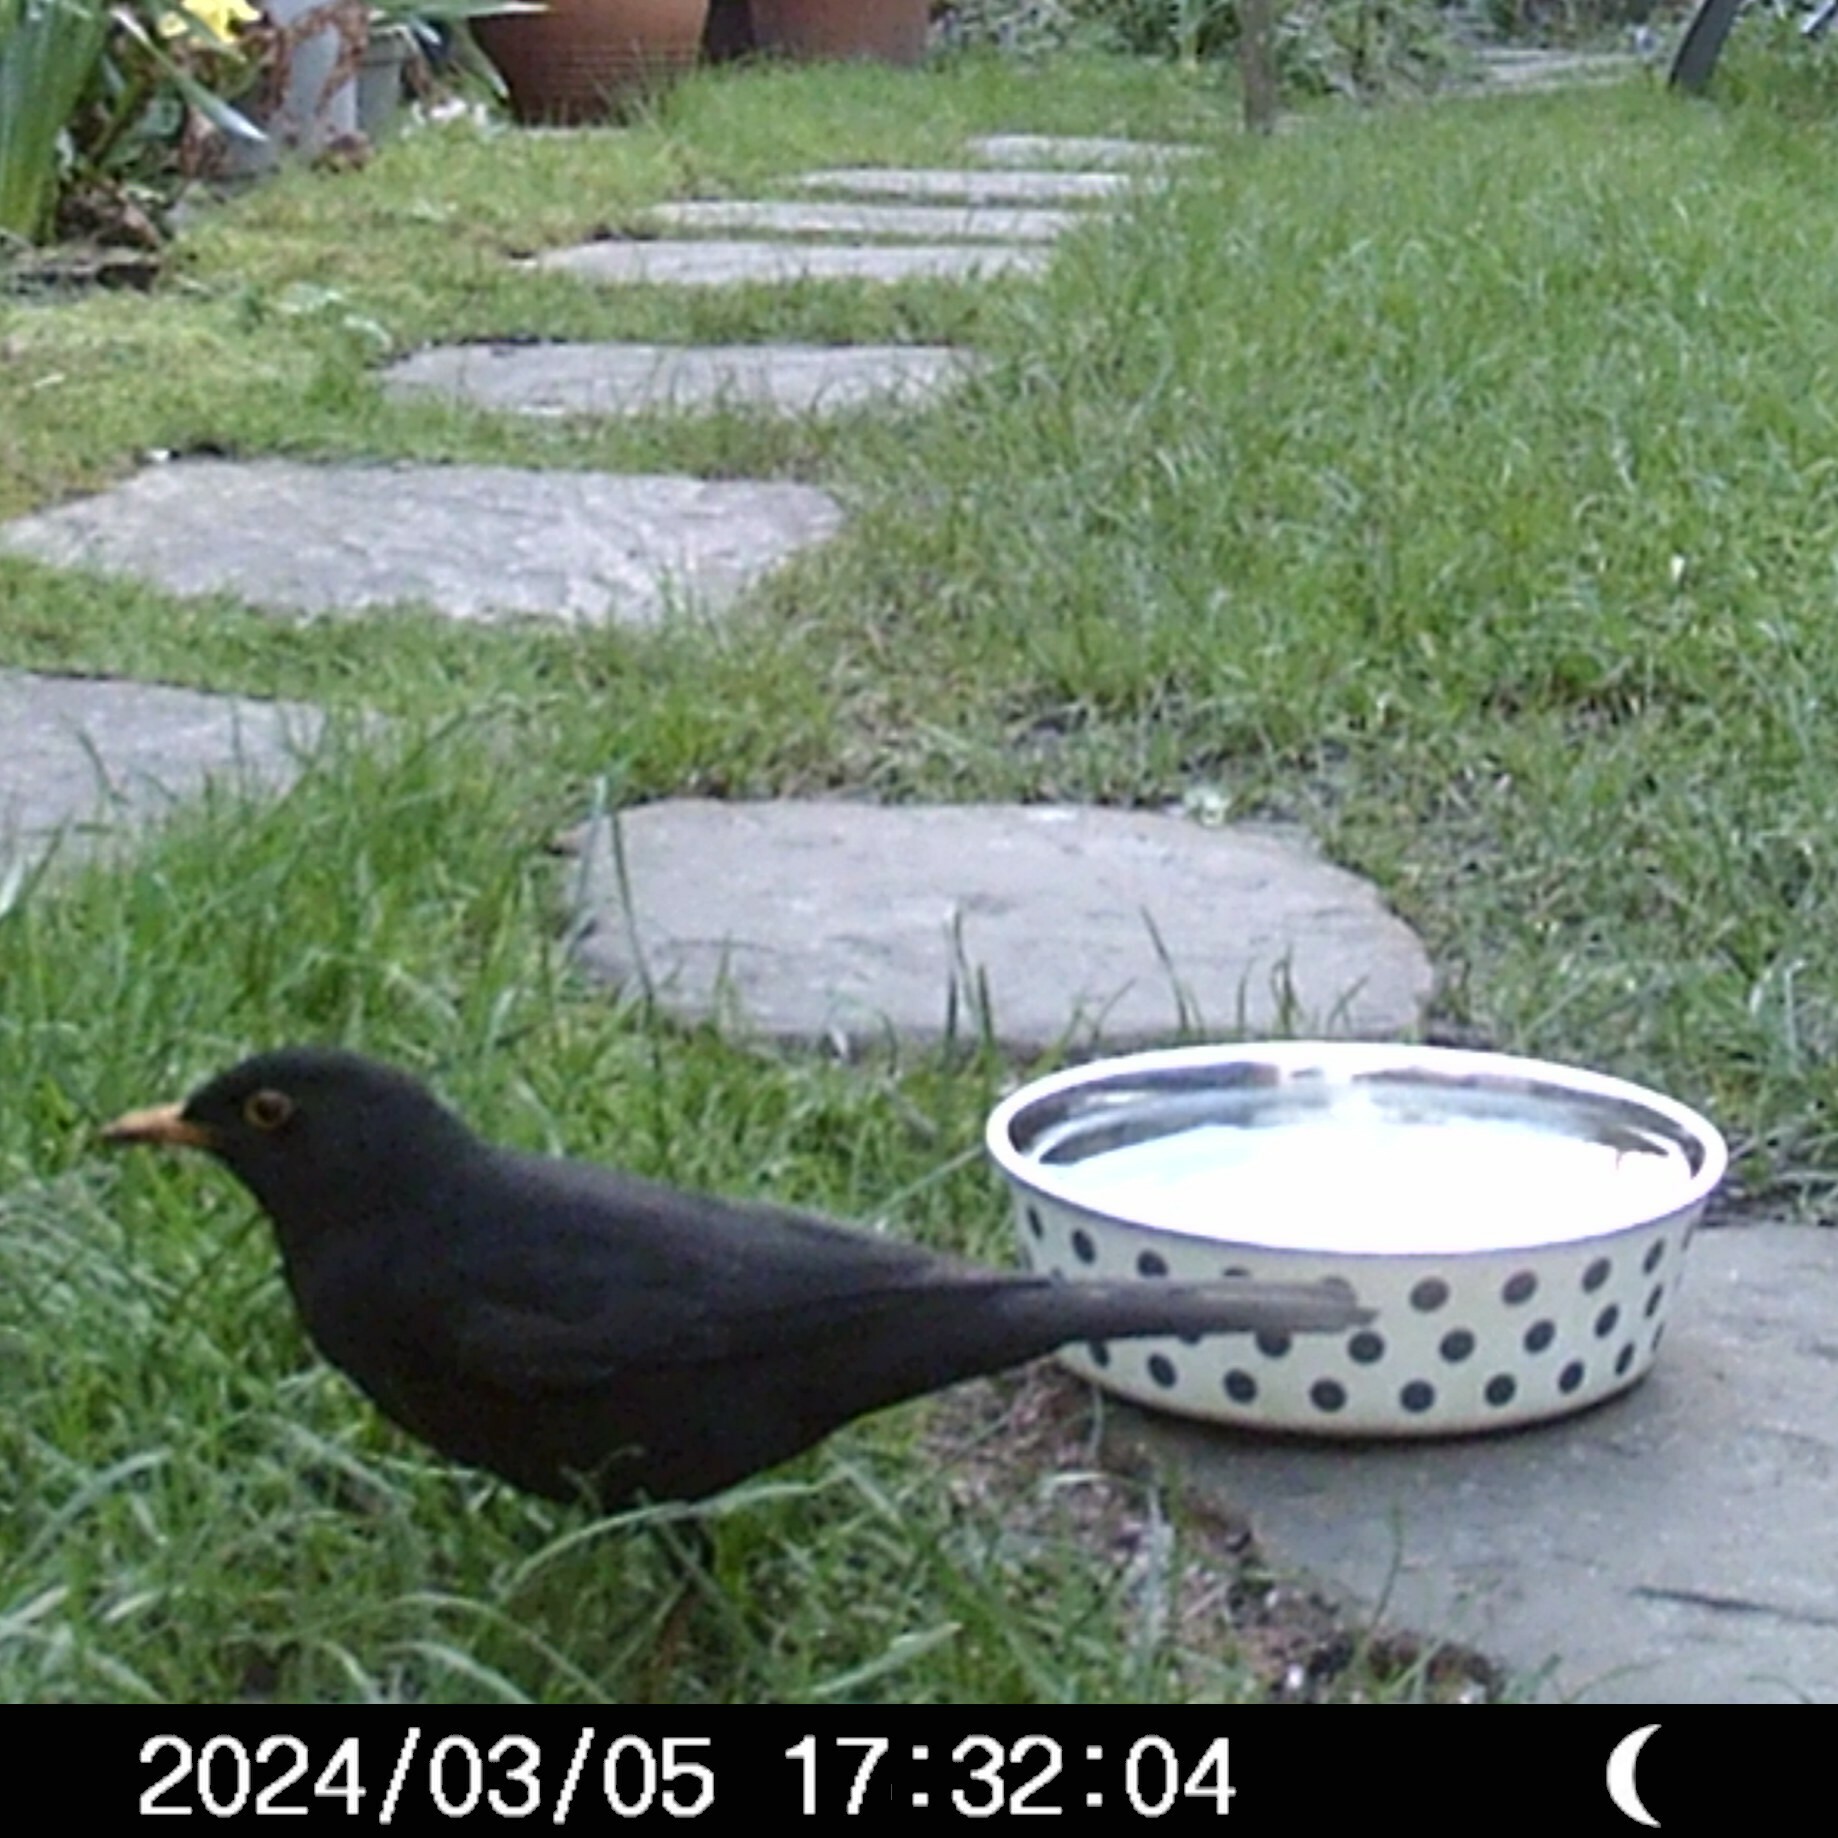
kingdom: Animalia
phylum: Chordata
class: Aves
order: Passeriformes
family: Turdidae
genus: Turdus
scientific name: Turdus merula
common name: Common blackbird
